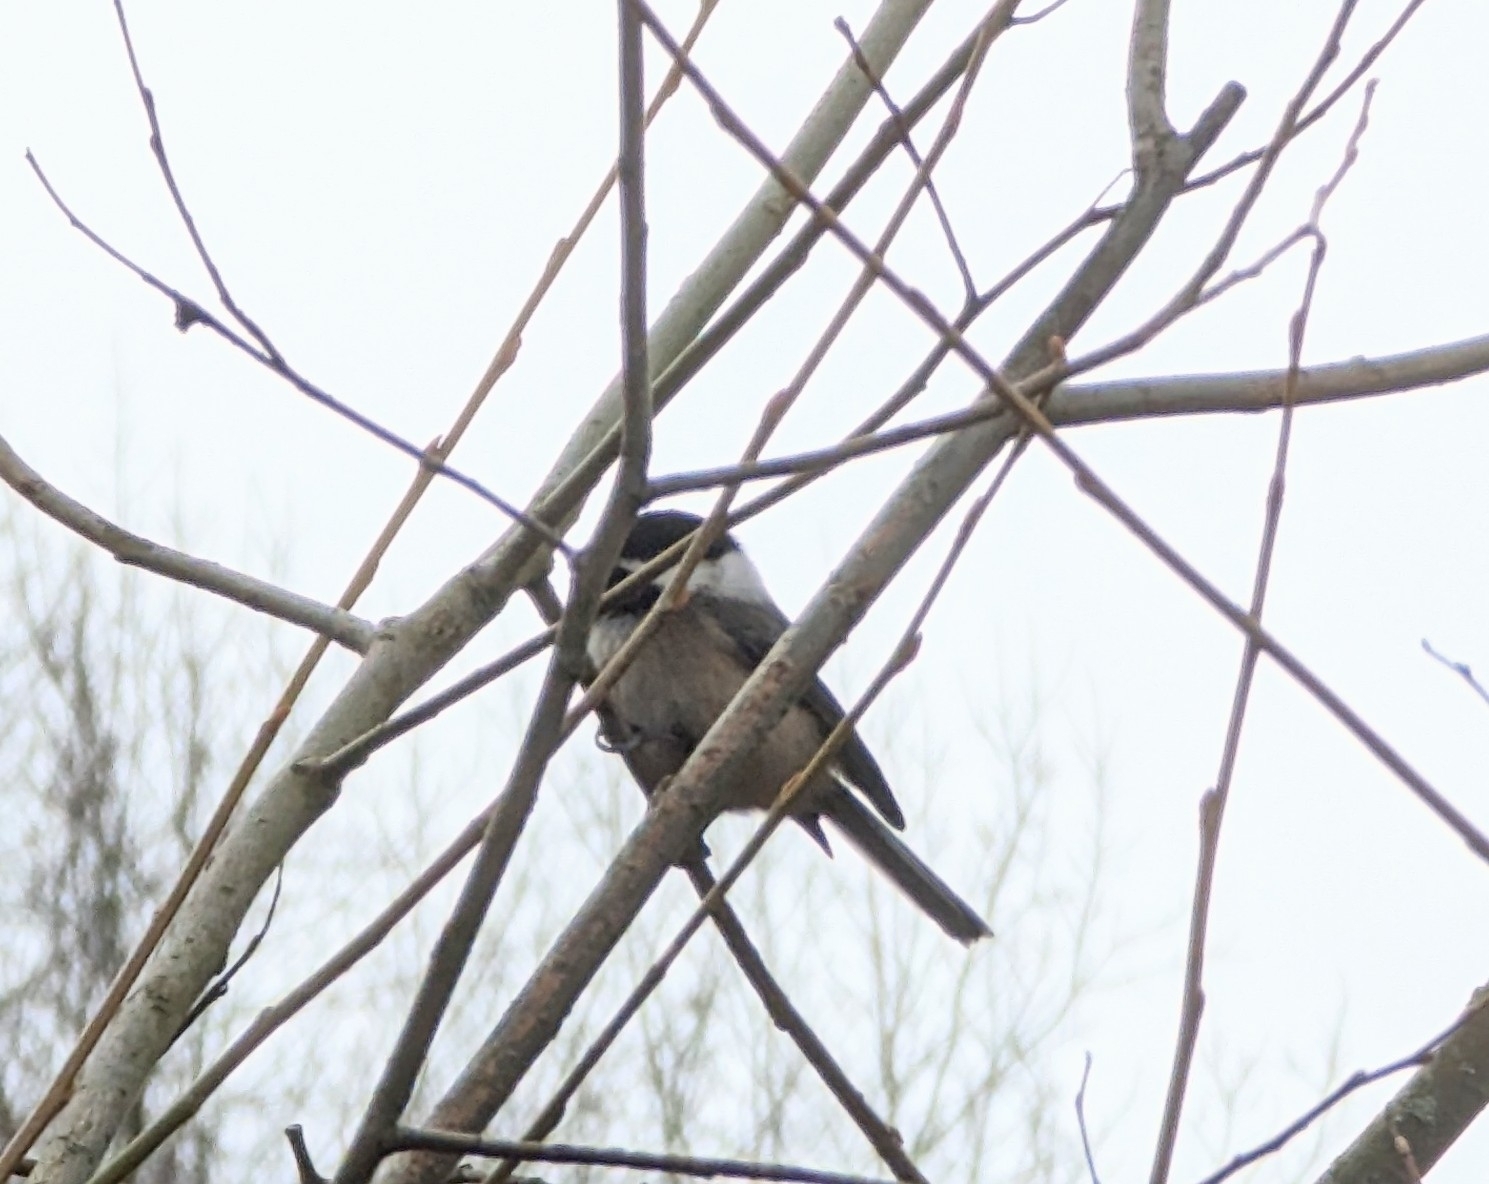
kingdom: Animalia
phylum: Chordata
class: Aves
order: Passeriformes
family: Paridae
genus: Poecile
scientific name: Poecile atricapillus
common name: Black-capped chickadee
